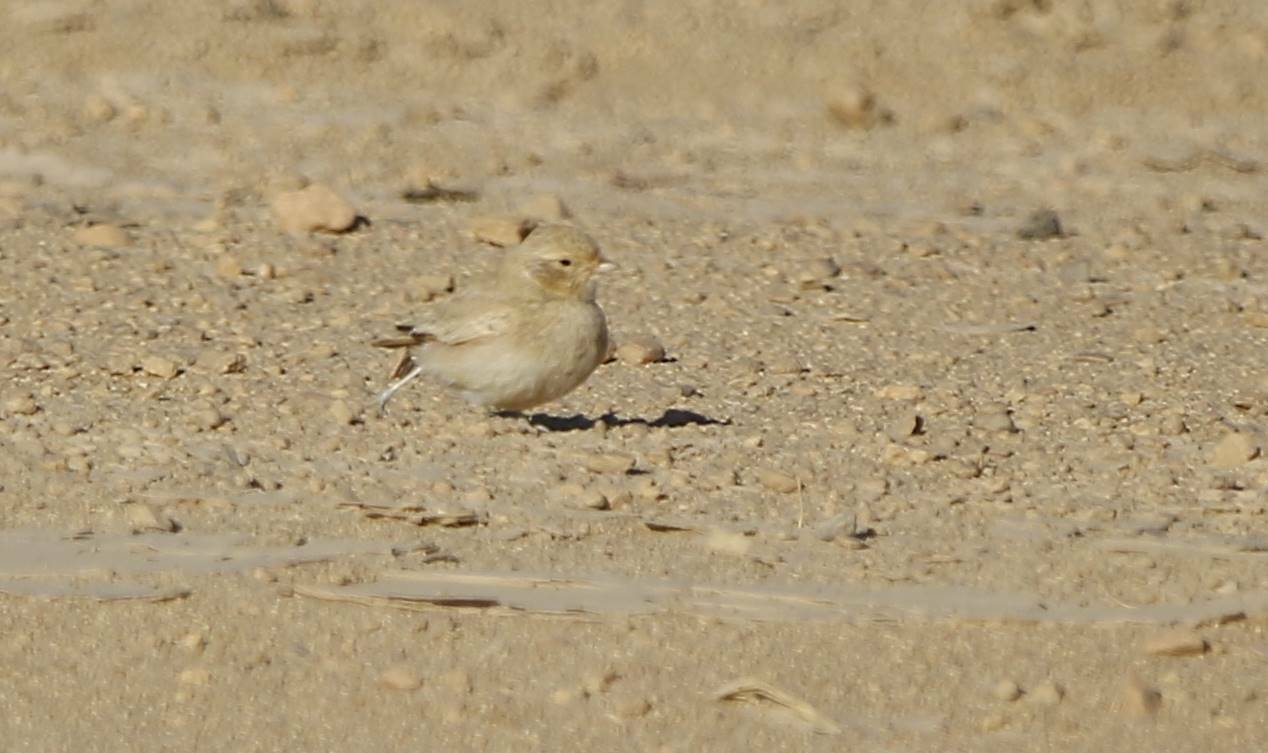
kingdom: Animalia
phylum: Chordata
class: Aves
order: Passeriformes
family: Alaudidae
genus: Ammomanes
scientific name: Ammomanes cinctura
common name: Bar-tailed lark
